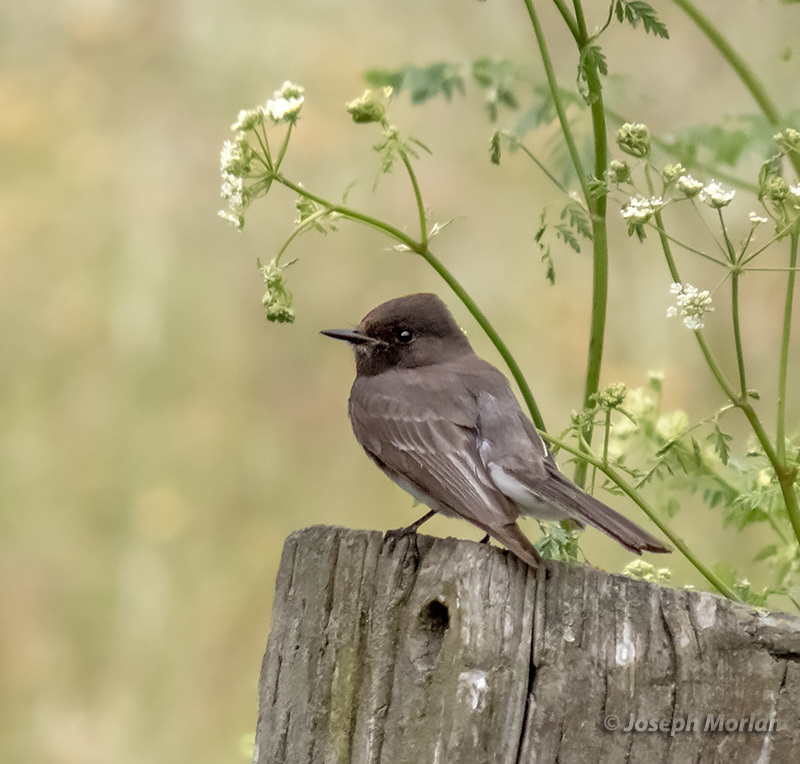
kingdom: Animalia
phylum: Chordata
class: Aves
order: Passeriformes
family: Tyrannidae
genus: Sayornis
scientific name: Sayornis nigricans
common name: Black phoebe
